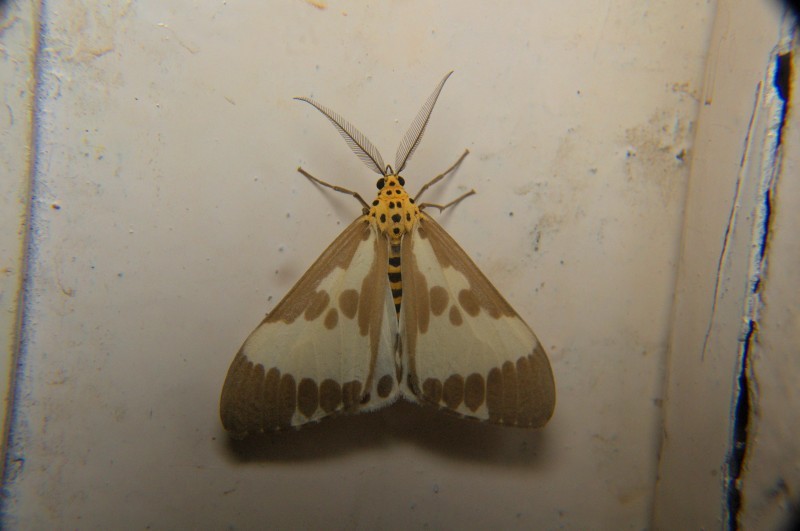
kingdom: Animalia
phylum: Arthropoda
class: Insecta
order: Lepidoptera
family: Erebidae
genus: Nyctemera
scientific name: Nyctemera arctata
